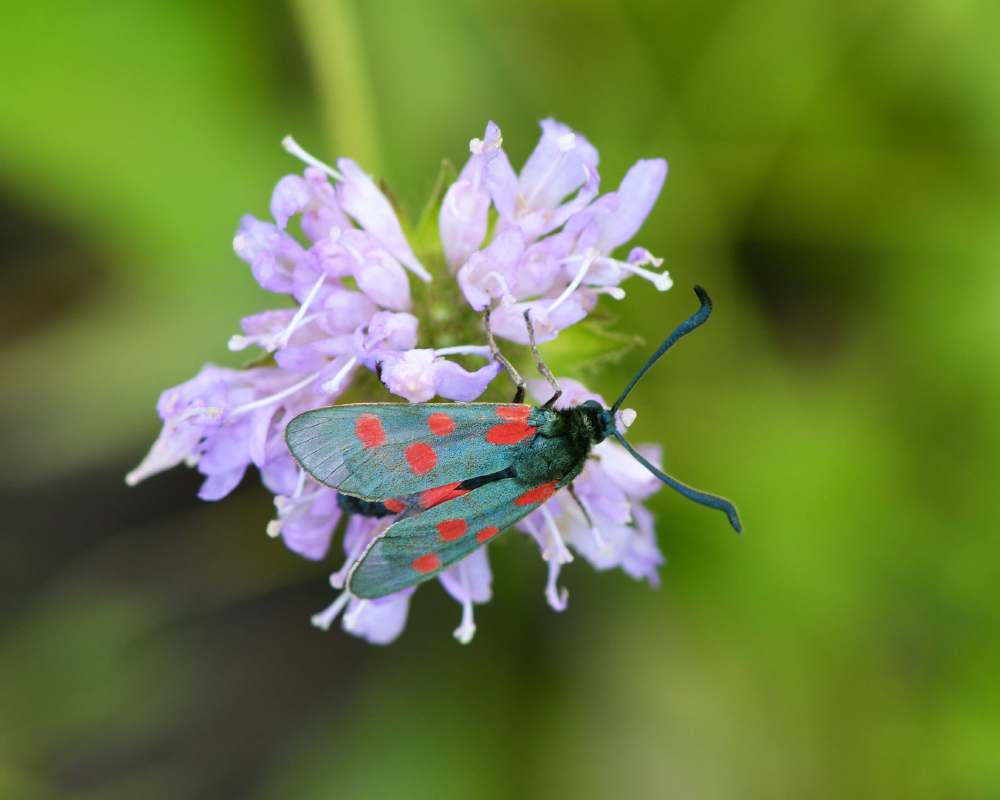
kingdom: Animalia
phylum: Arthropoda
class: Insecta
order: Lepidoptera
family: Zygaenidae
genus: Zygaena
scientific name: Zygaena centaureae
